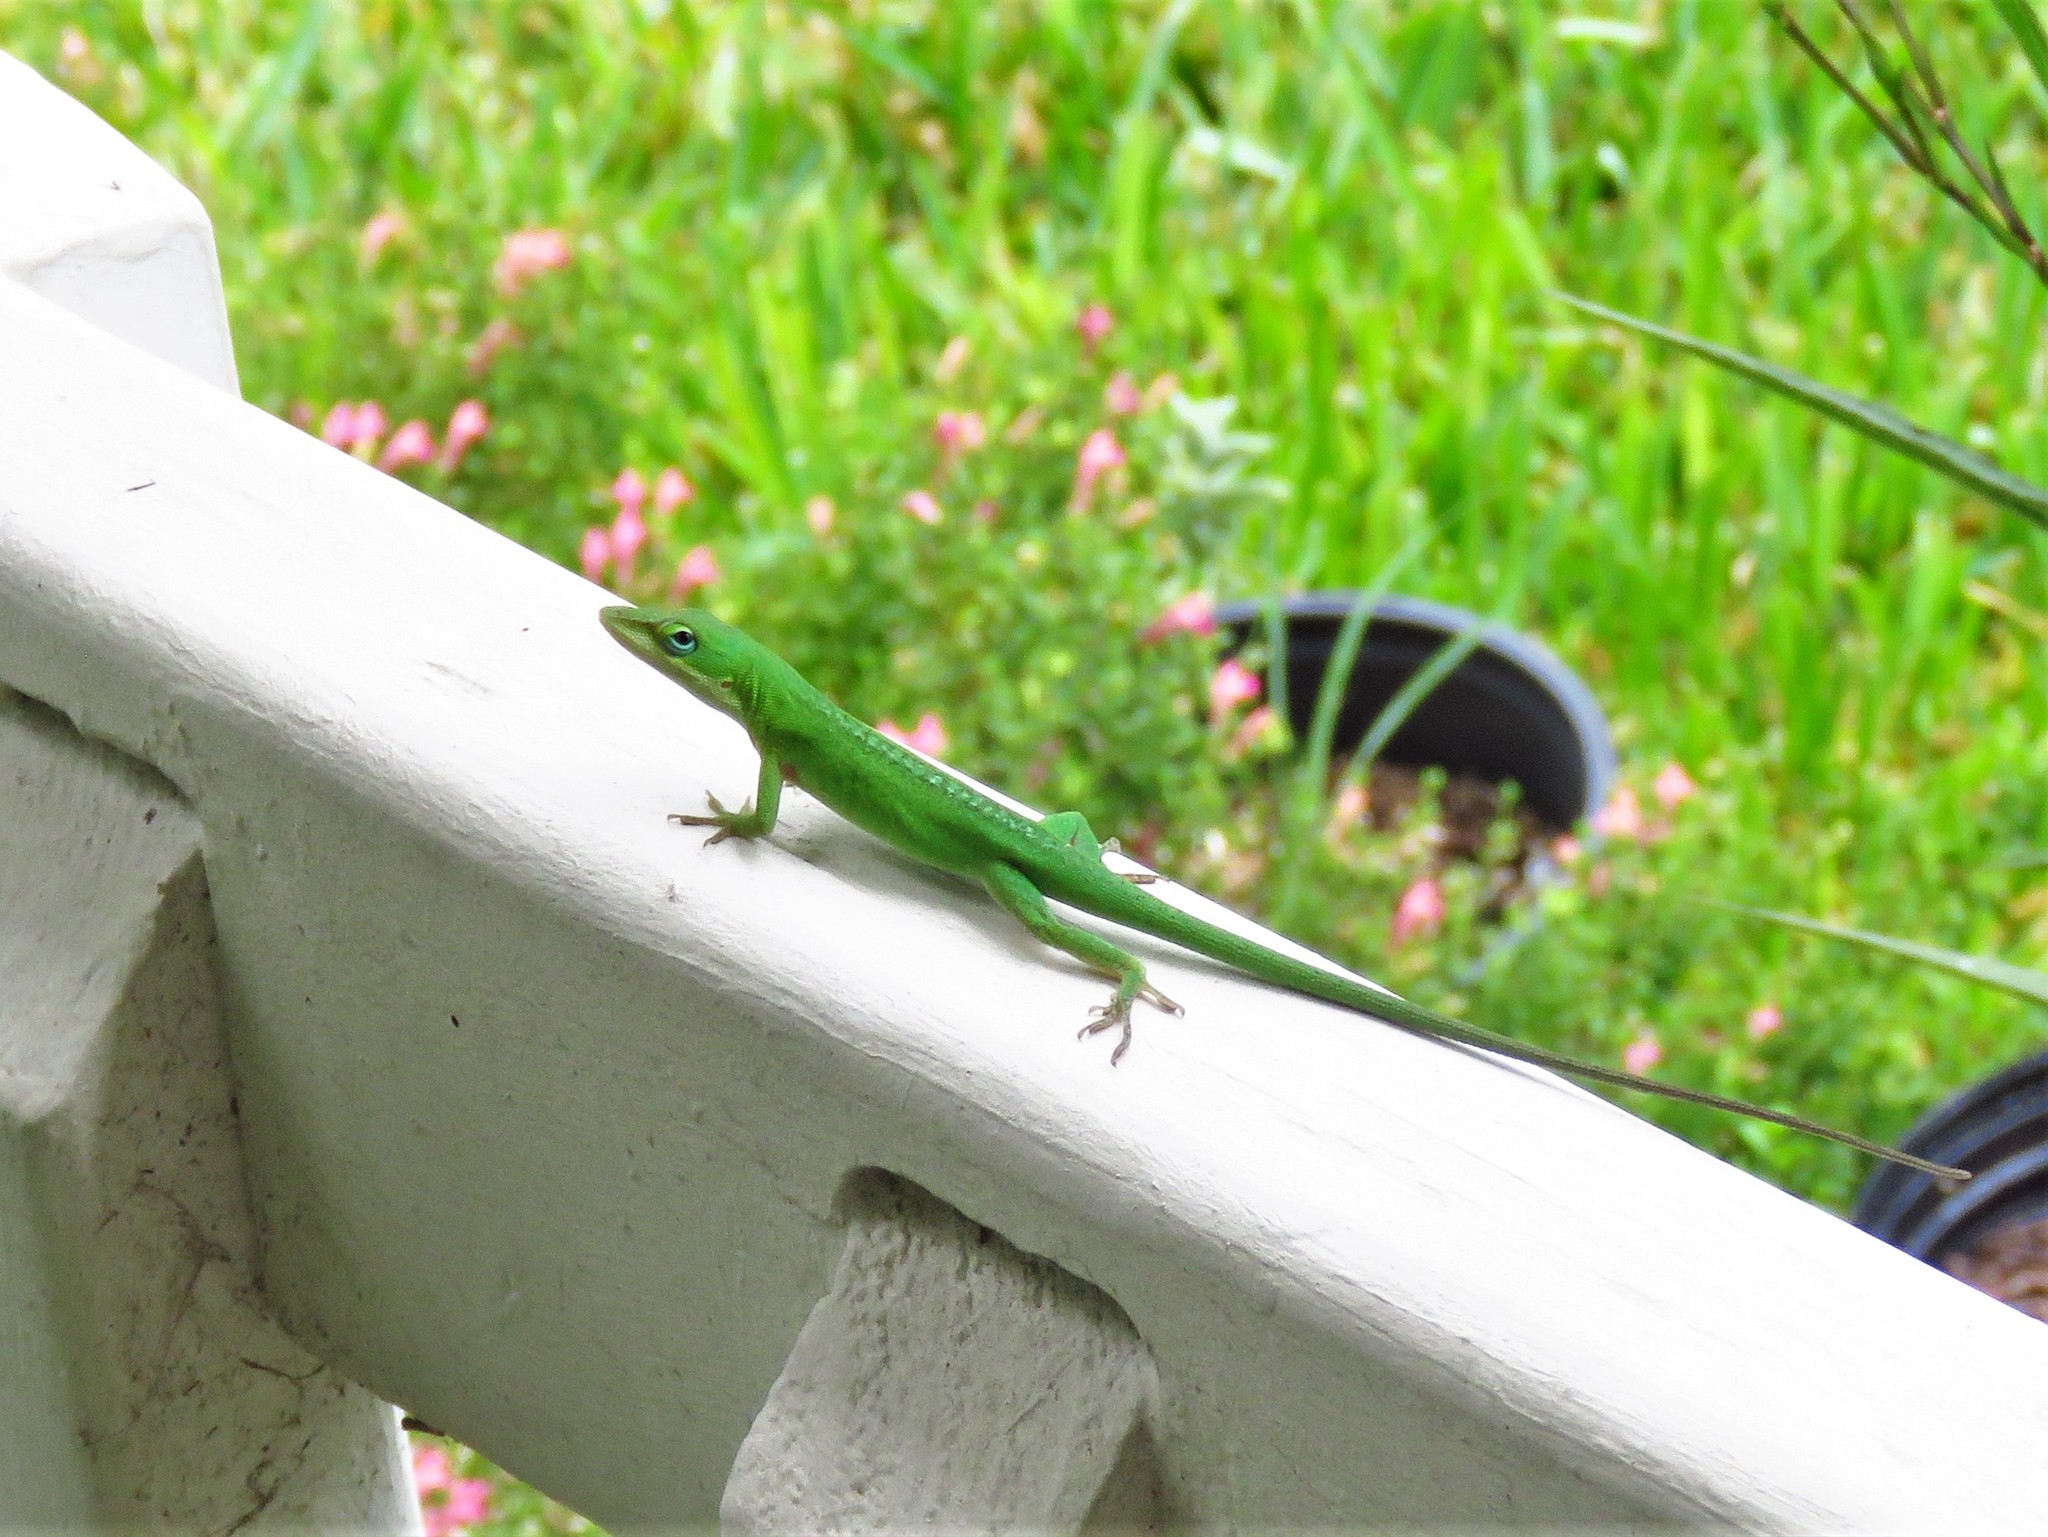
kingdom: Animalia
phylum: Chordata
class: Squamata
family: Dactyloidae
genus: Anolis
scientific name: Anolis carolinensis
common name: Green anole
